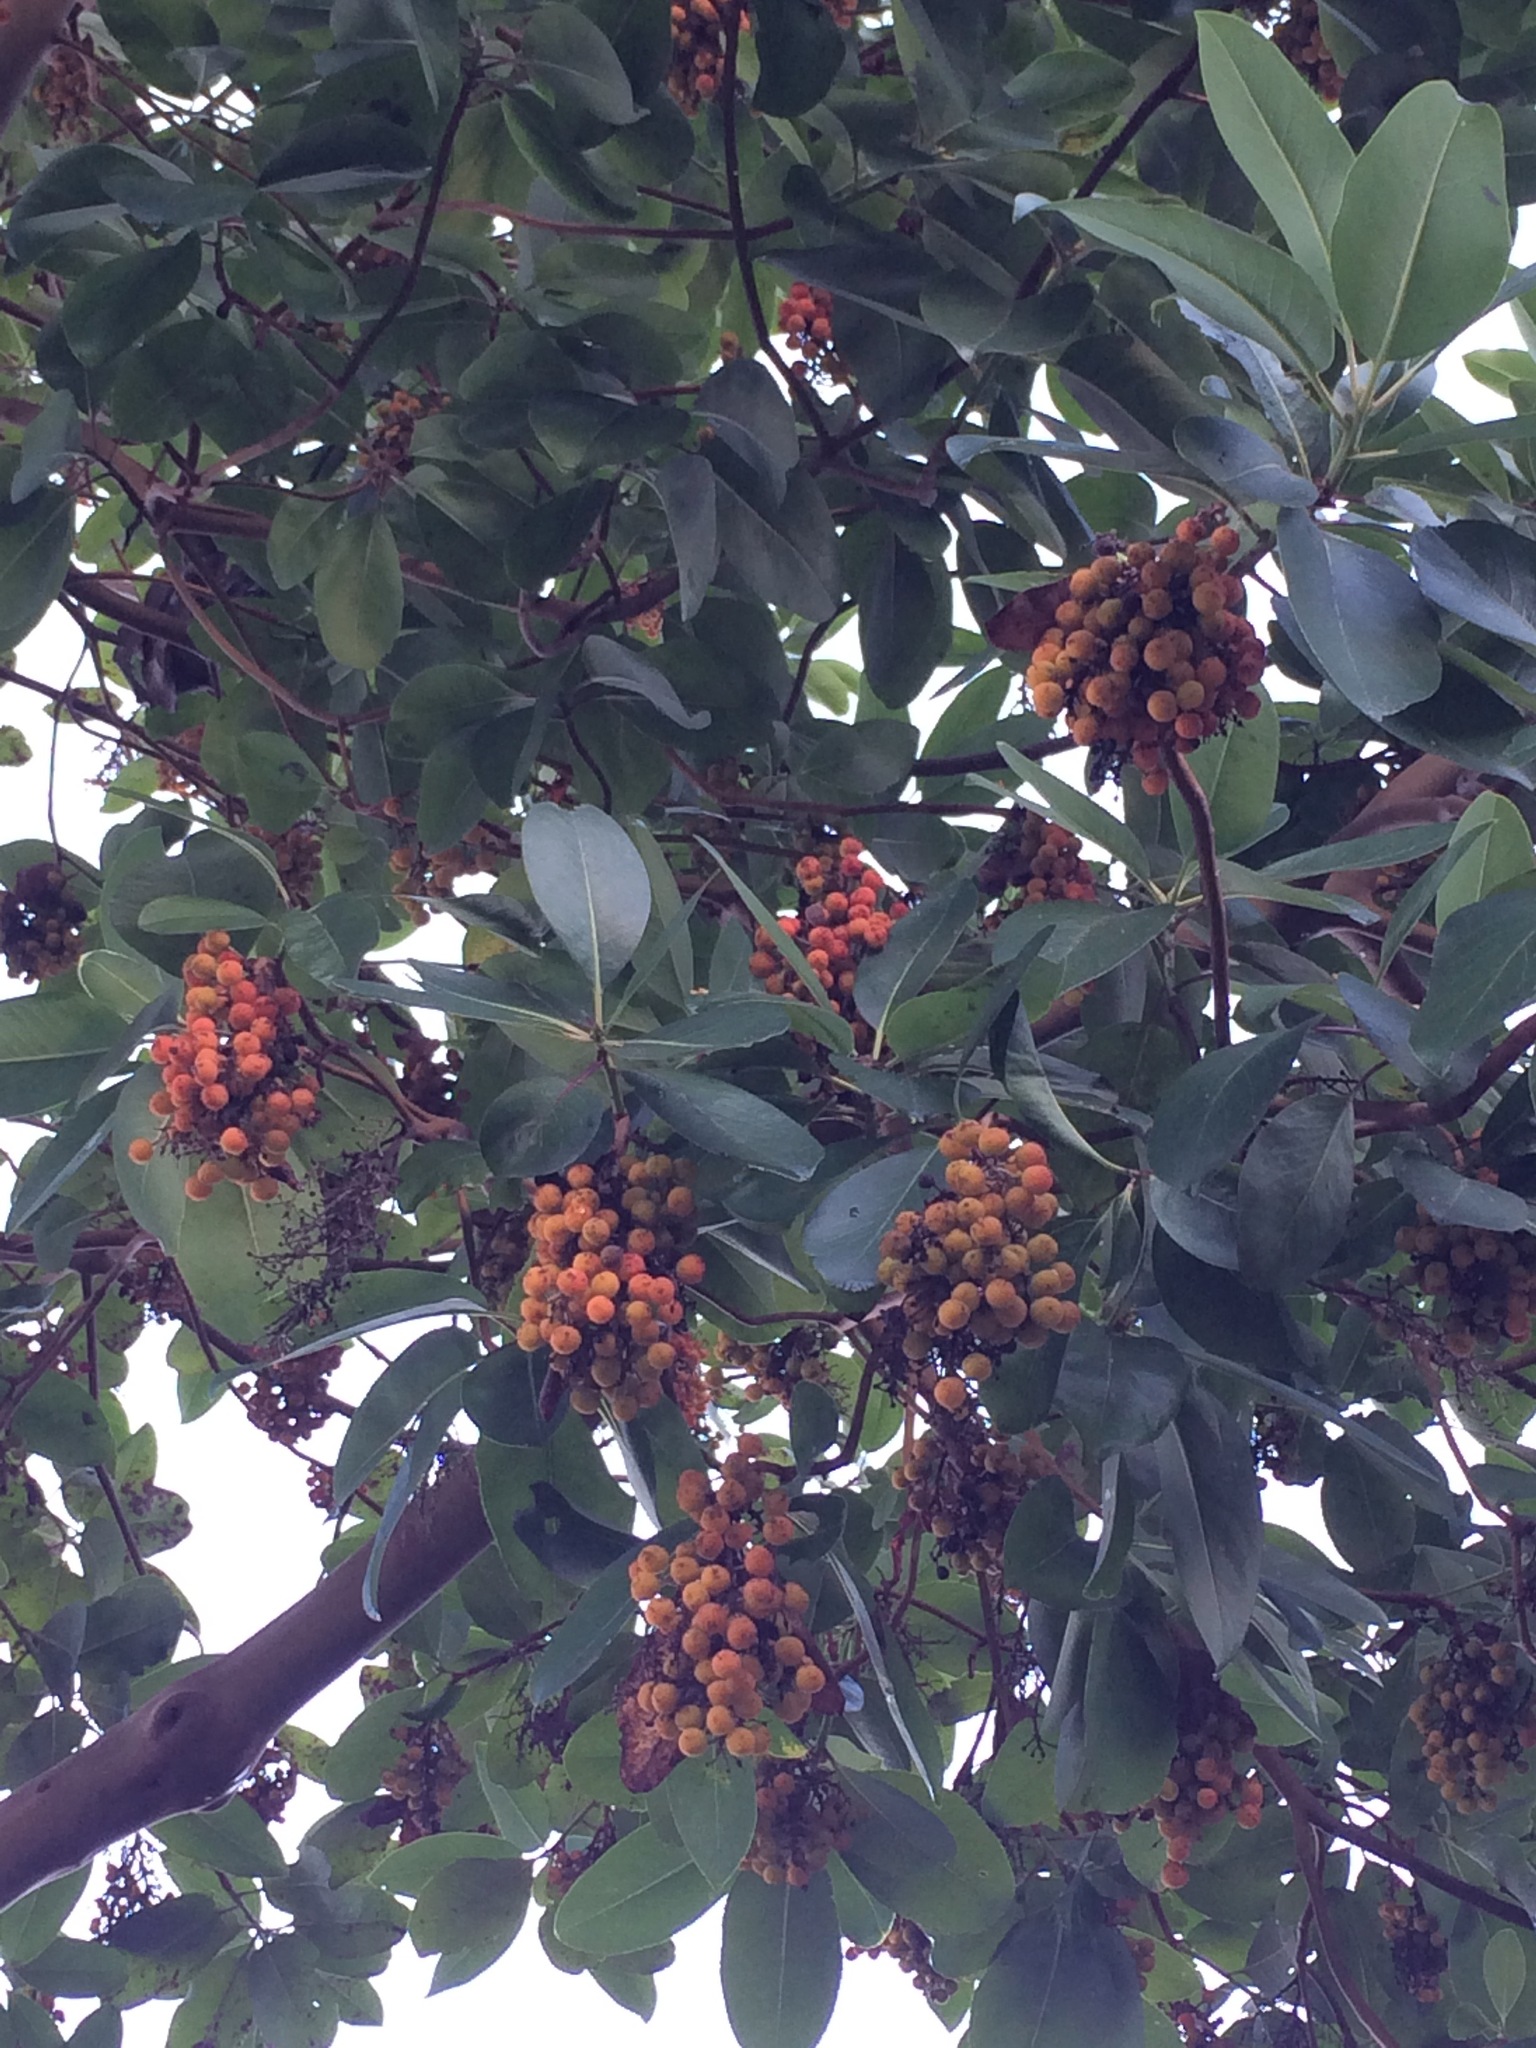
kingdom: Plantae
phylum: Tracheophyta
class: Magnoliopsida
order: Ericales
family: Ericaceae
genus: Arbutus
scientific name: Arbutus menziesii
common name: Pacific madrone
